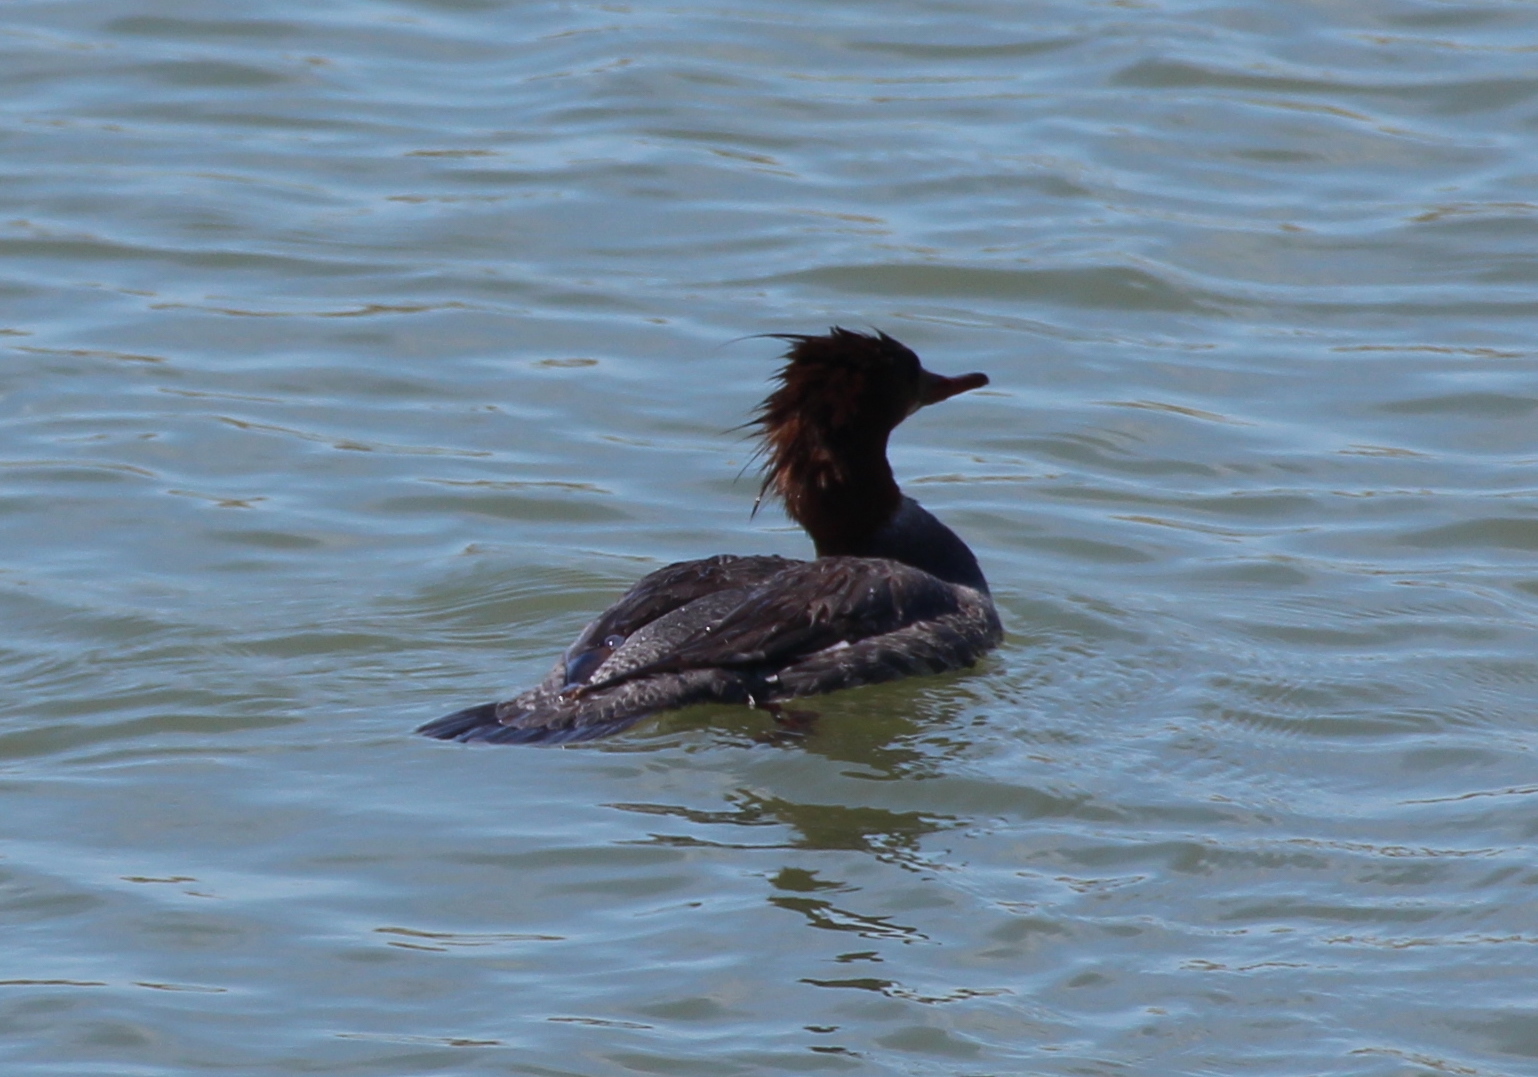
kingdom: Animalia
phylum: Chordata
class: Aves
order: Anseriformes
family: Anatidae
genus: Mergus
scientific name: Mergus merganser
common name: Common merganser
